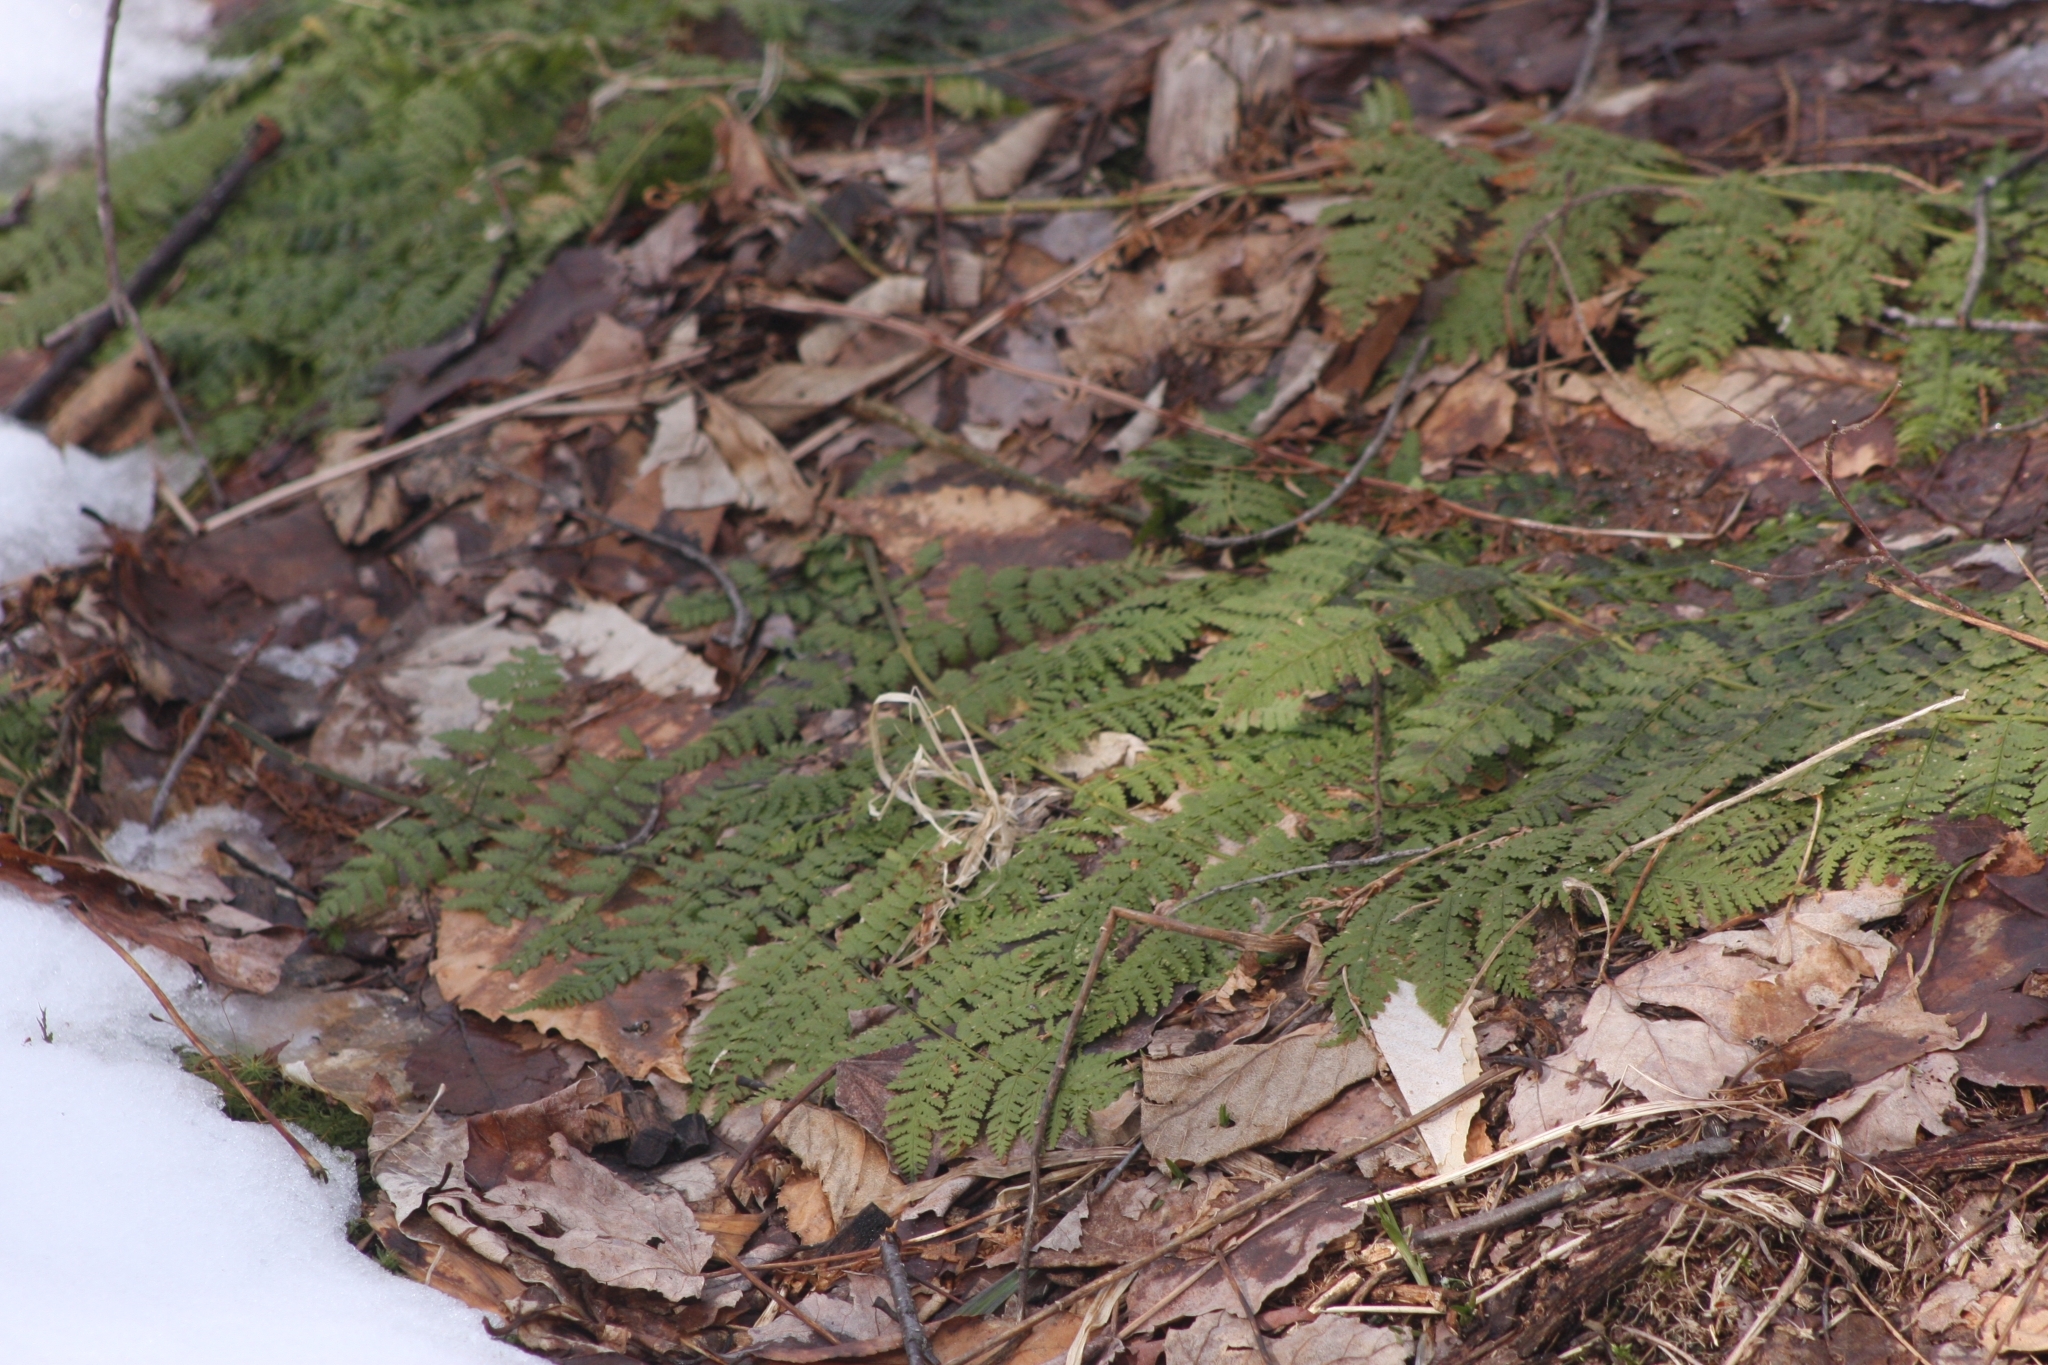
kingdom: Plantae
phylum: Tracheophyta
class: Polypodiopsida
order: Polypodiales
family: Dryopteridaceae
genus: Dryopteris
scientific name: Dryopteris intermedia
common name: Evergreen wood fern
